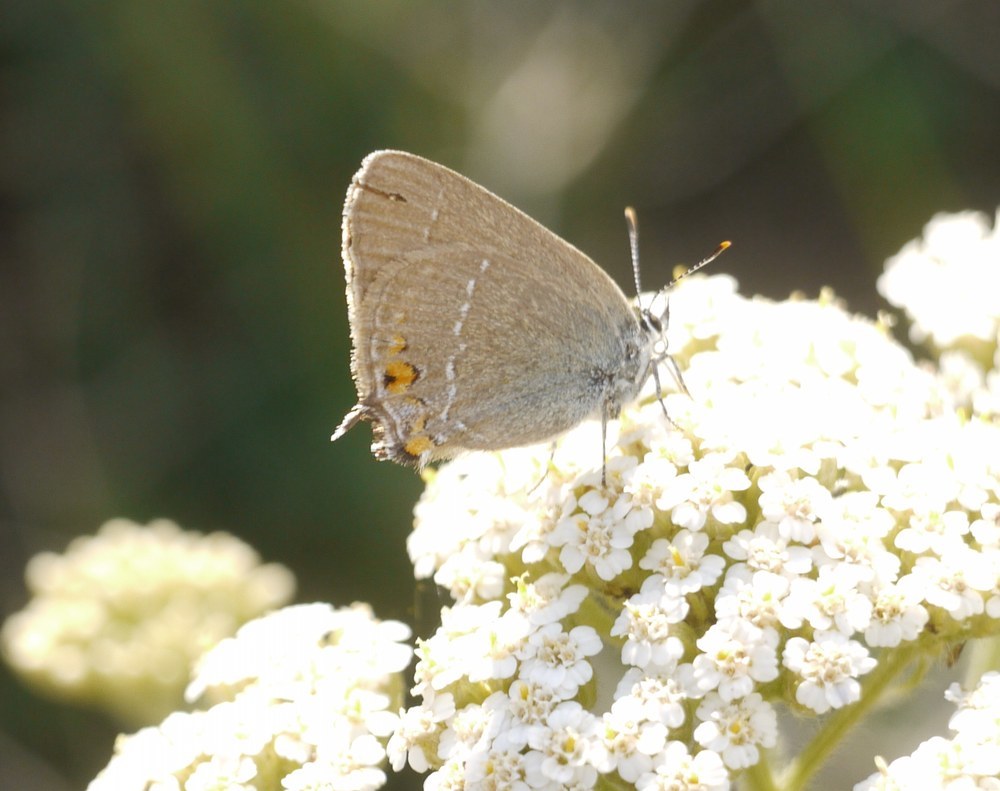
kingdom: Animalia
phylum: Arthropoda
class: Insecta
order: Lepidoptera
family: Lycaenidae
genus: Strymon
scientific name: Strymon acaciae
